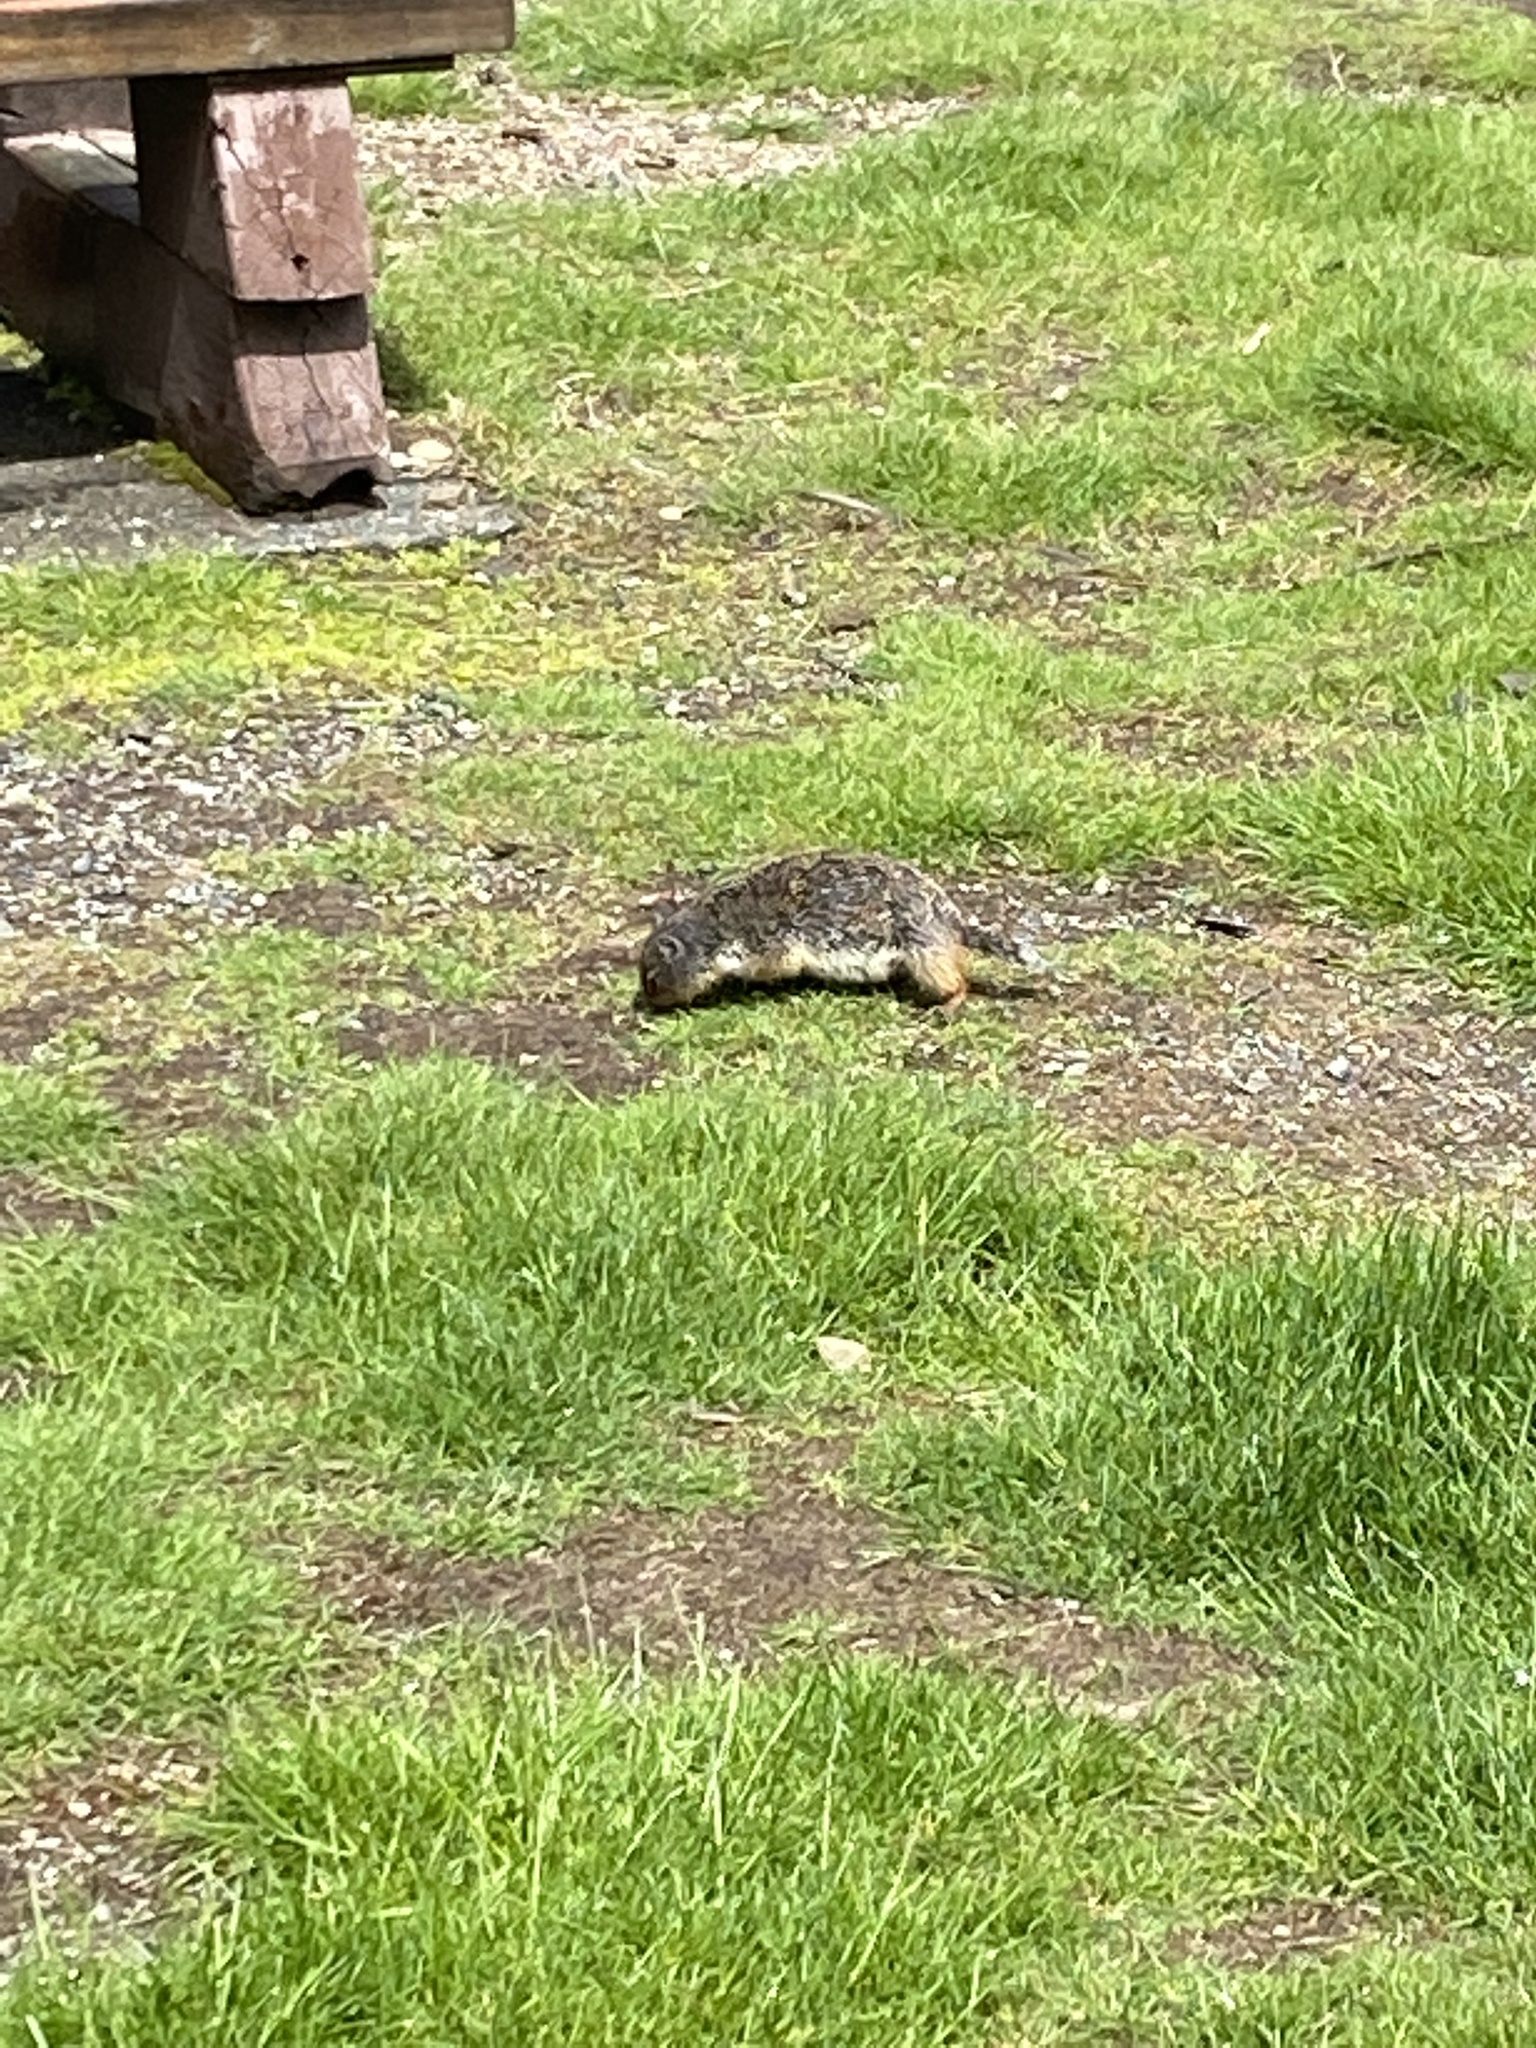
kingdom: Animalia
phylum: Chordata
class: Mammalia
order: Rodentia
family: Sciuridae
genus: Urocitellus
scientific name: Urocitellus columbianus
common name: Columbian ground squirrel
